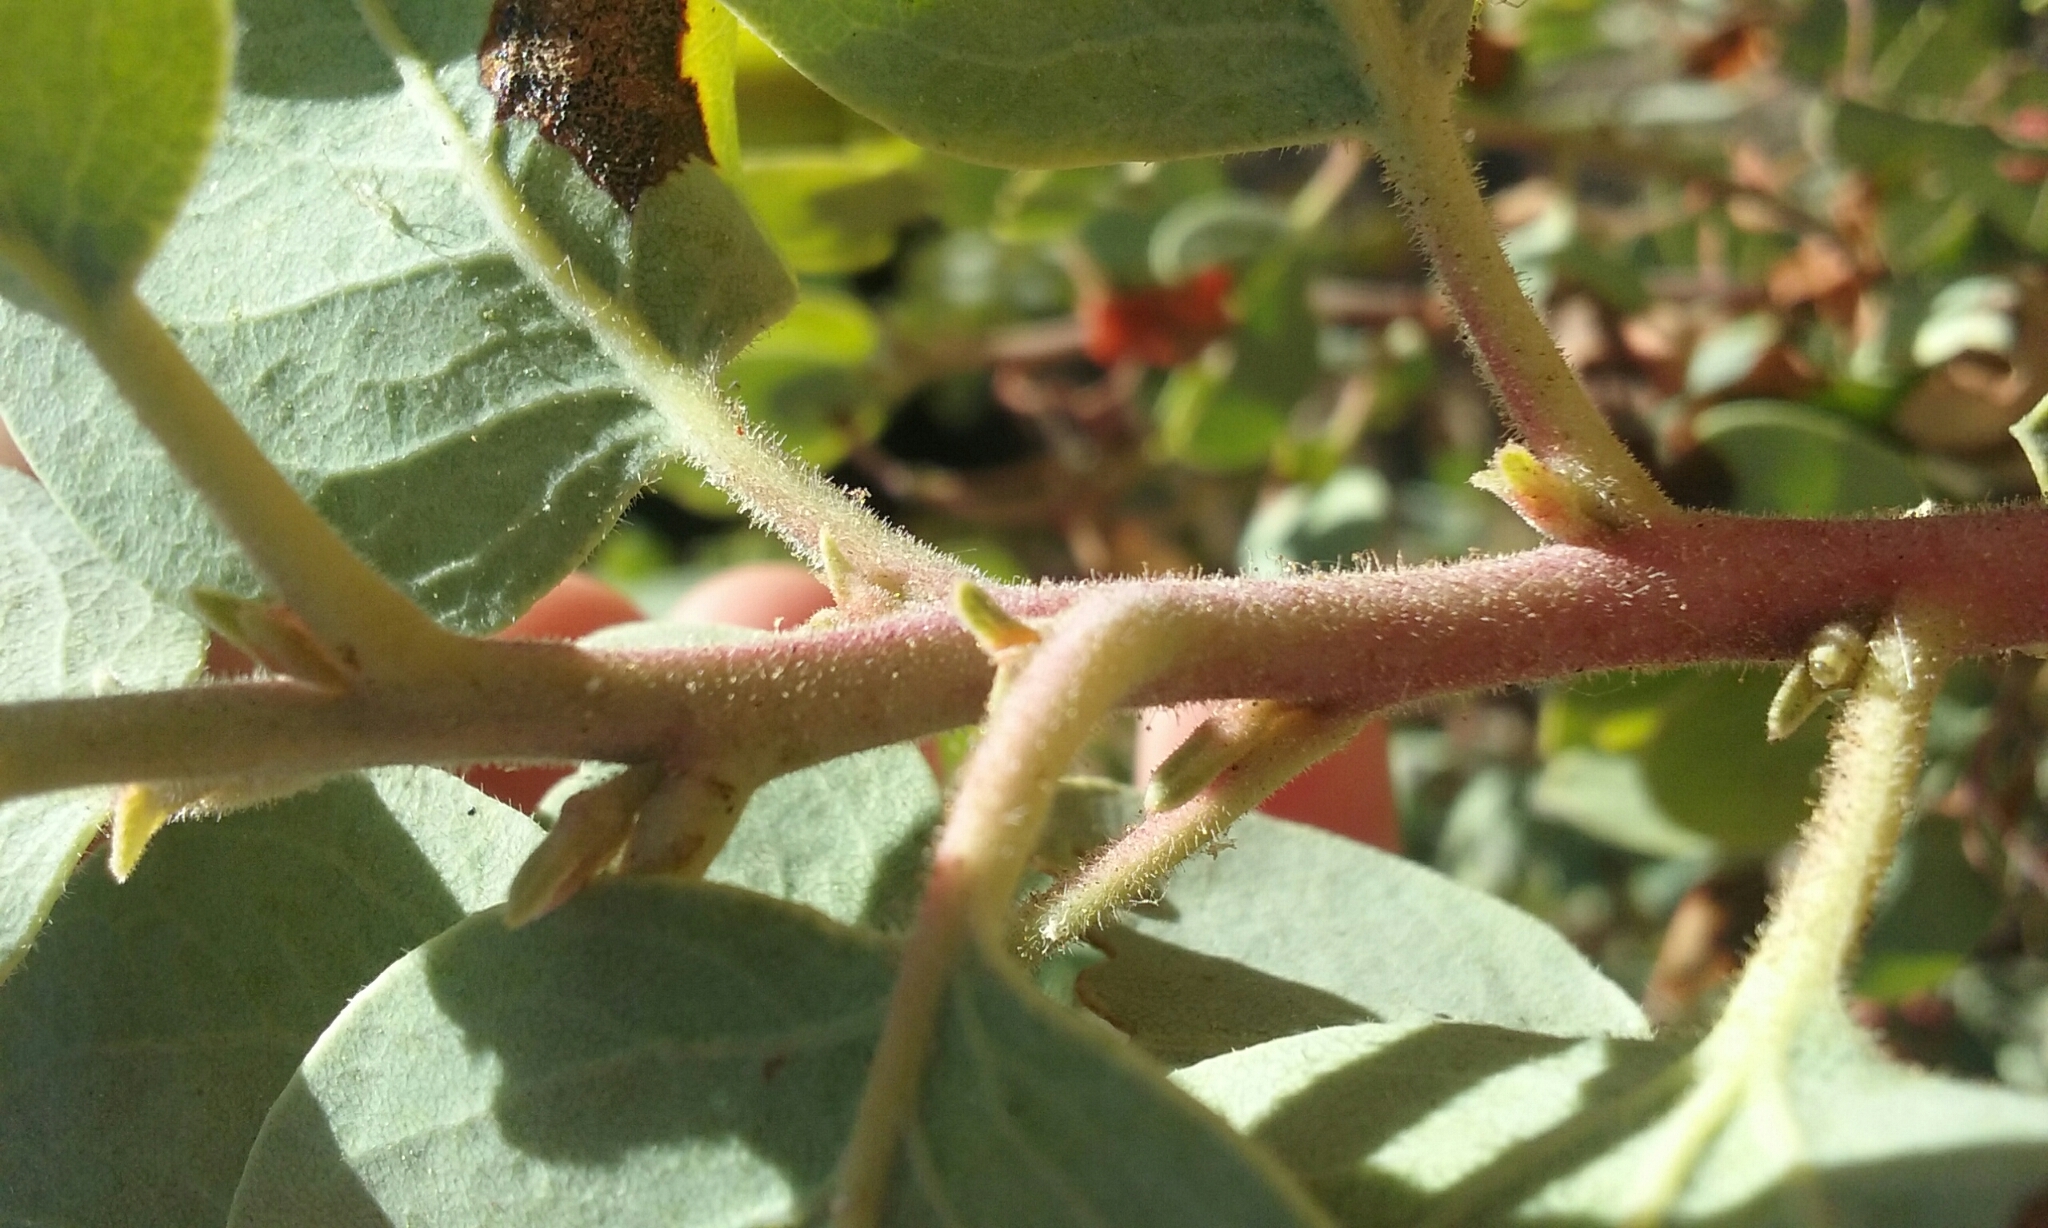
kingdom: Plantae
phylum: Tracheophyta
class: Magnoliopsida
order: Ericales
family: Ericaceae
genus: Arctostaphylos
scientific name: Arctostaphylos viscida
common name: White-leaf manzanita
